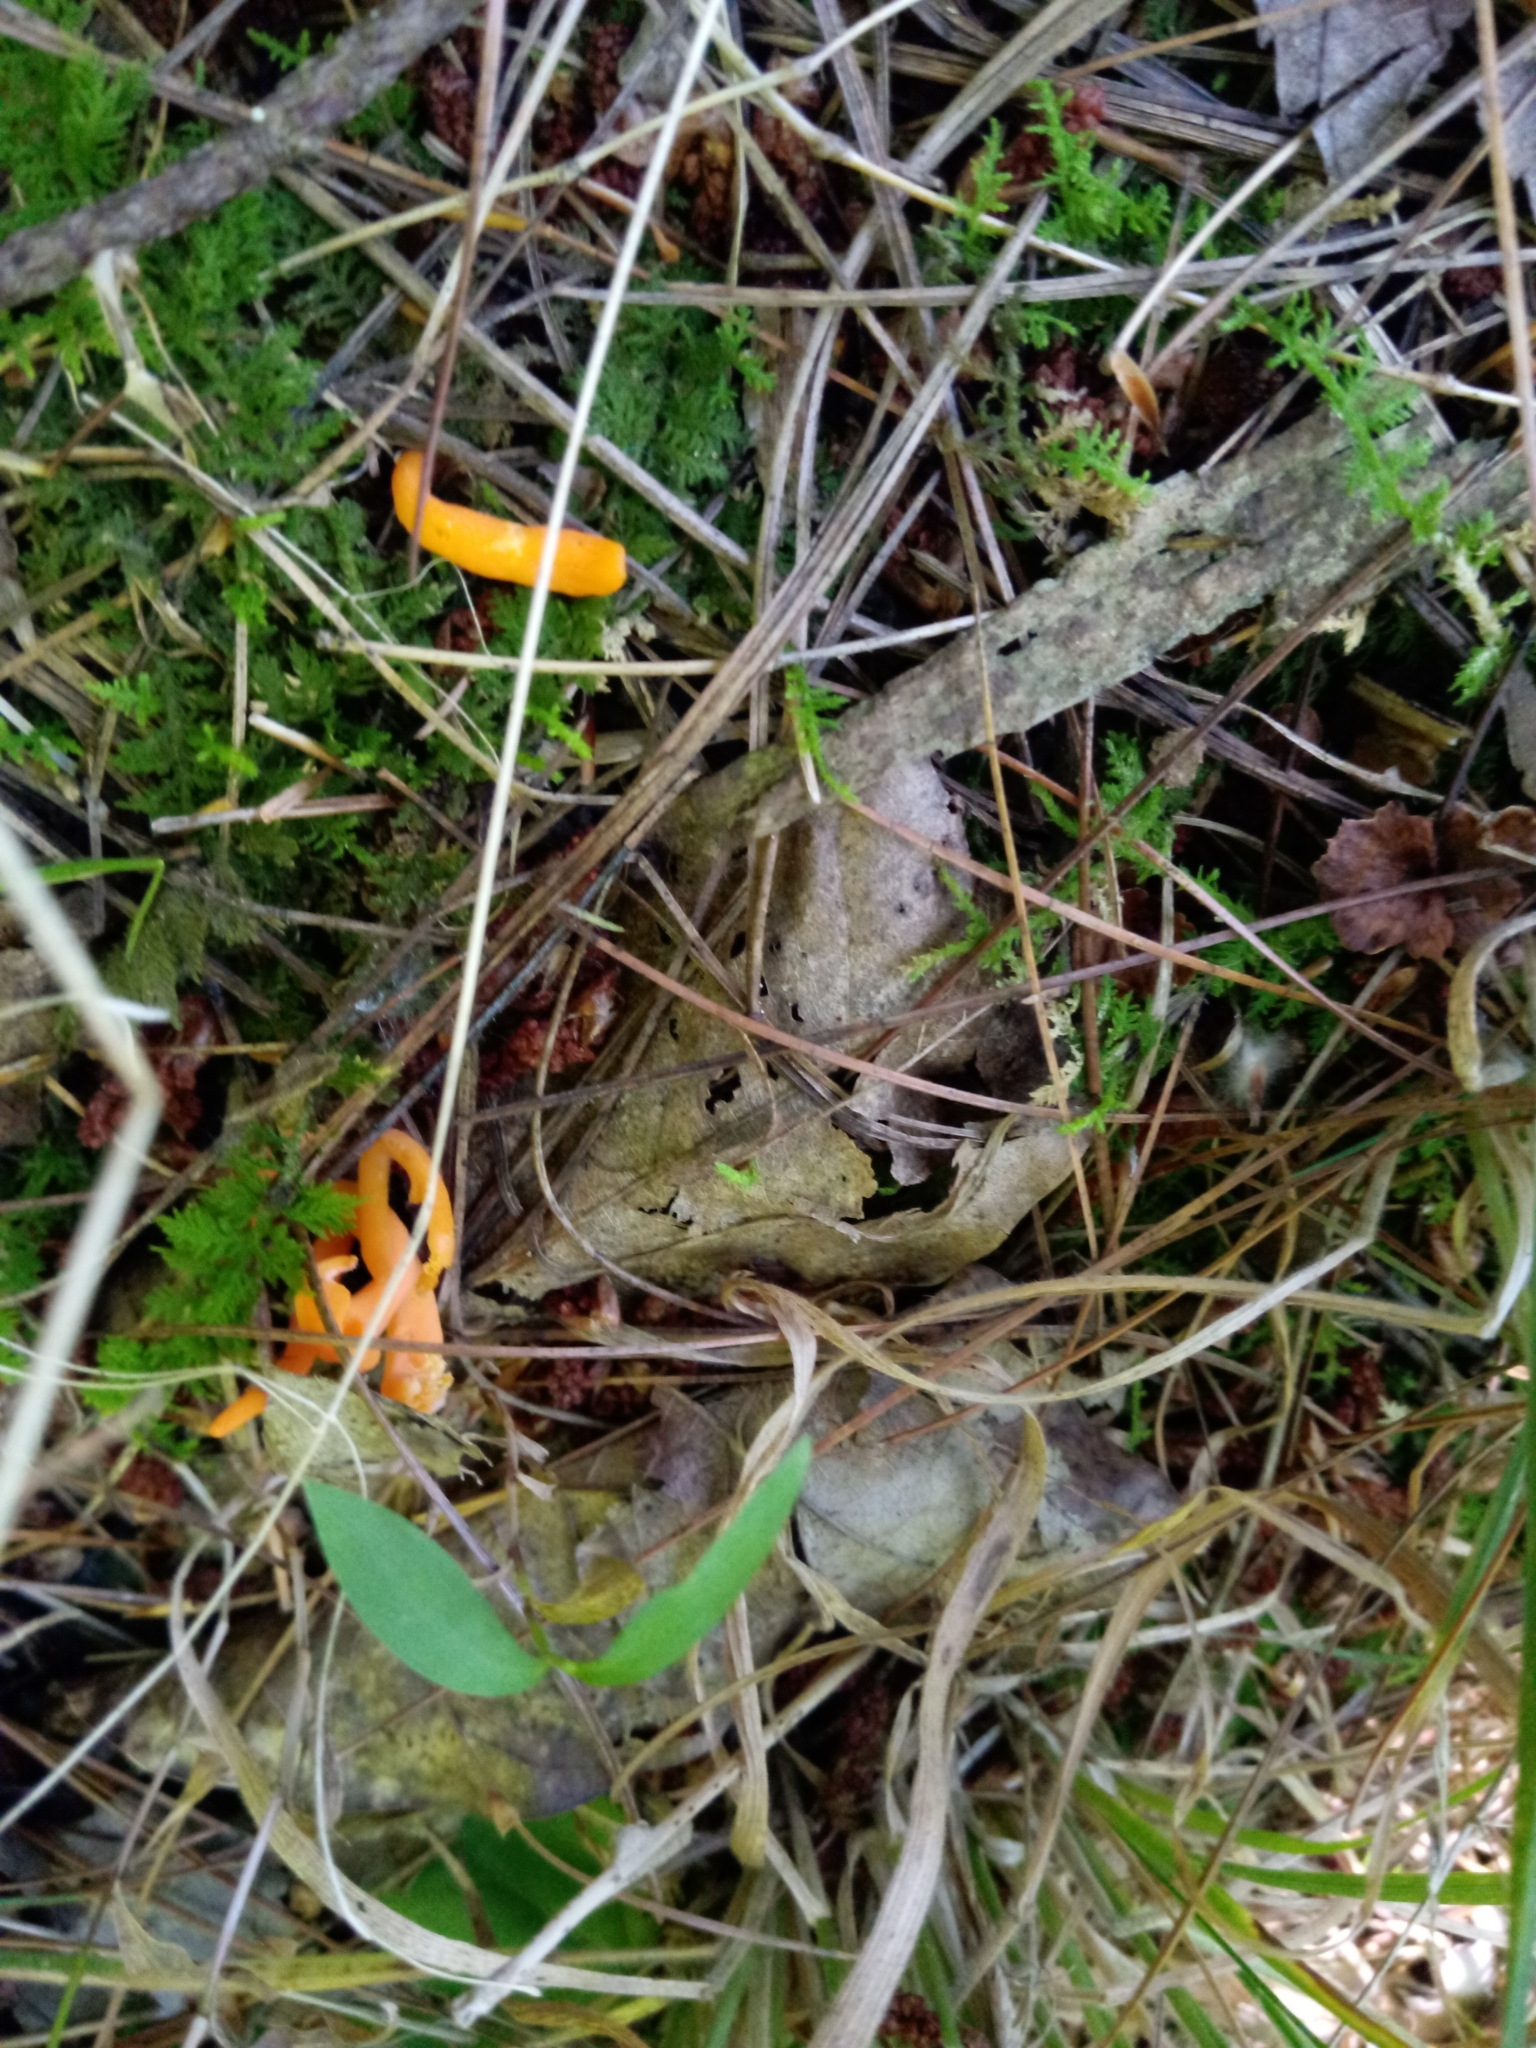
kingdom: Fungi
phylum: Basidiomycota
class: Agaricomycetes
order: Agaricales
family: Clavariaceae
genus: Clavulinopsis
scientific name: Clavulinopsis aurantiocinnabarina
